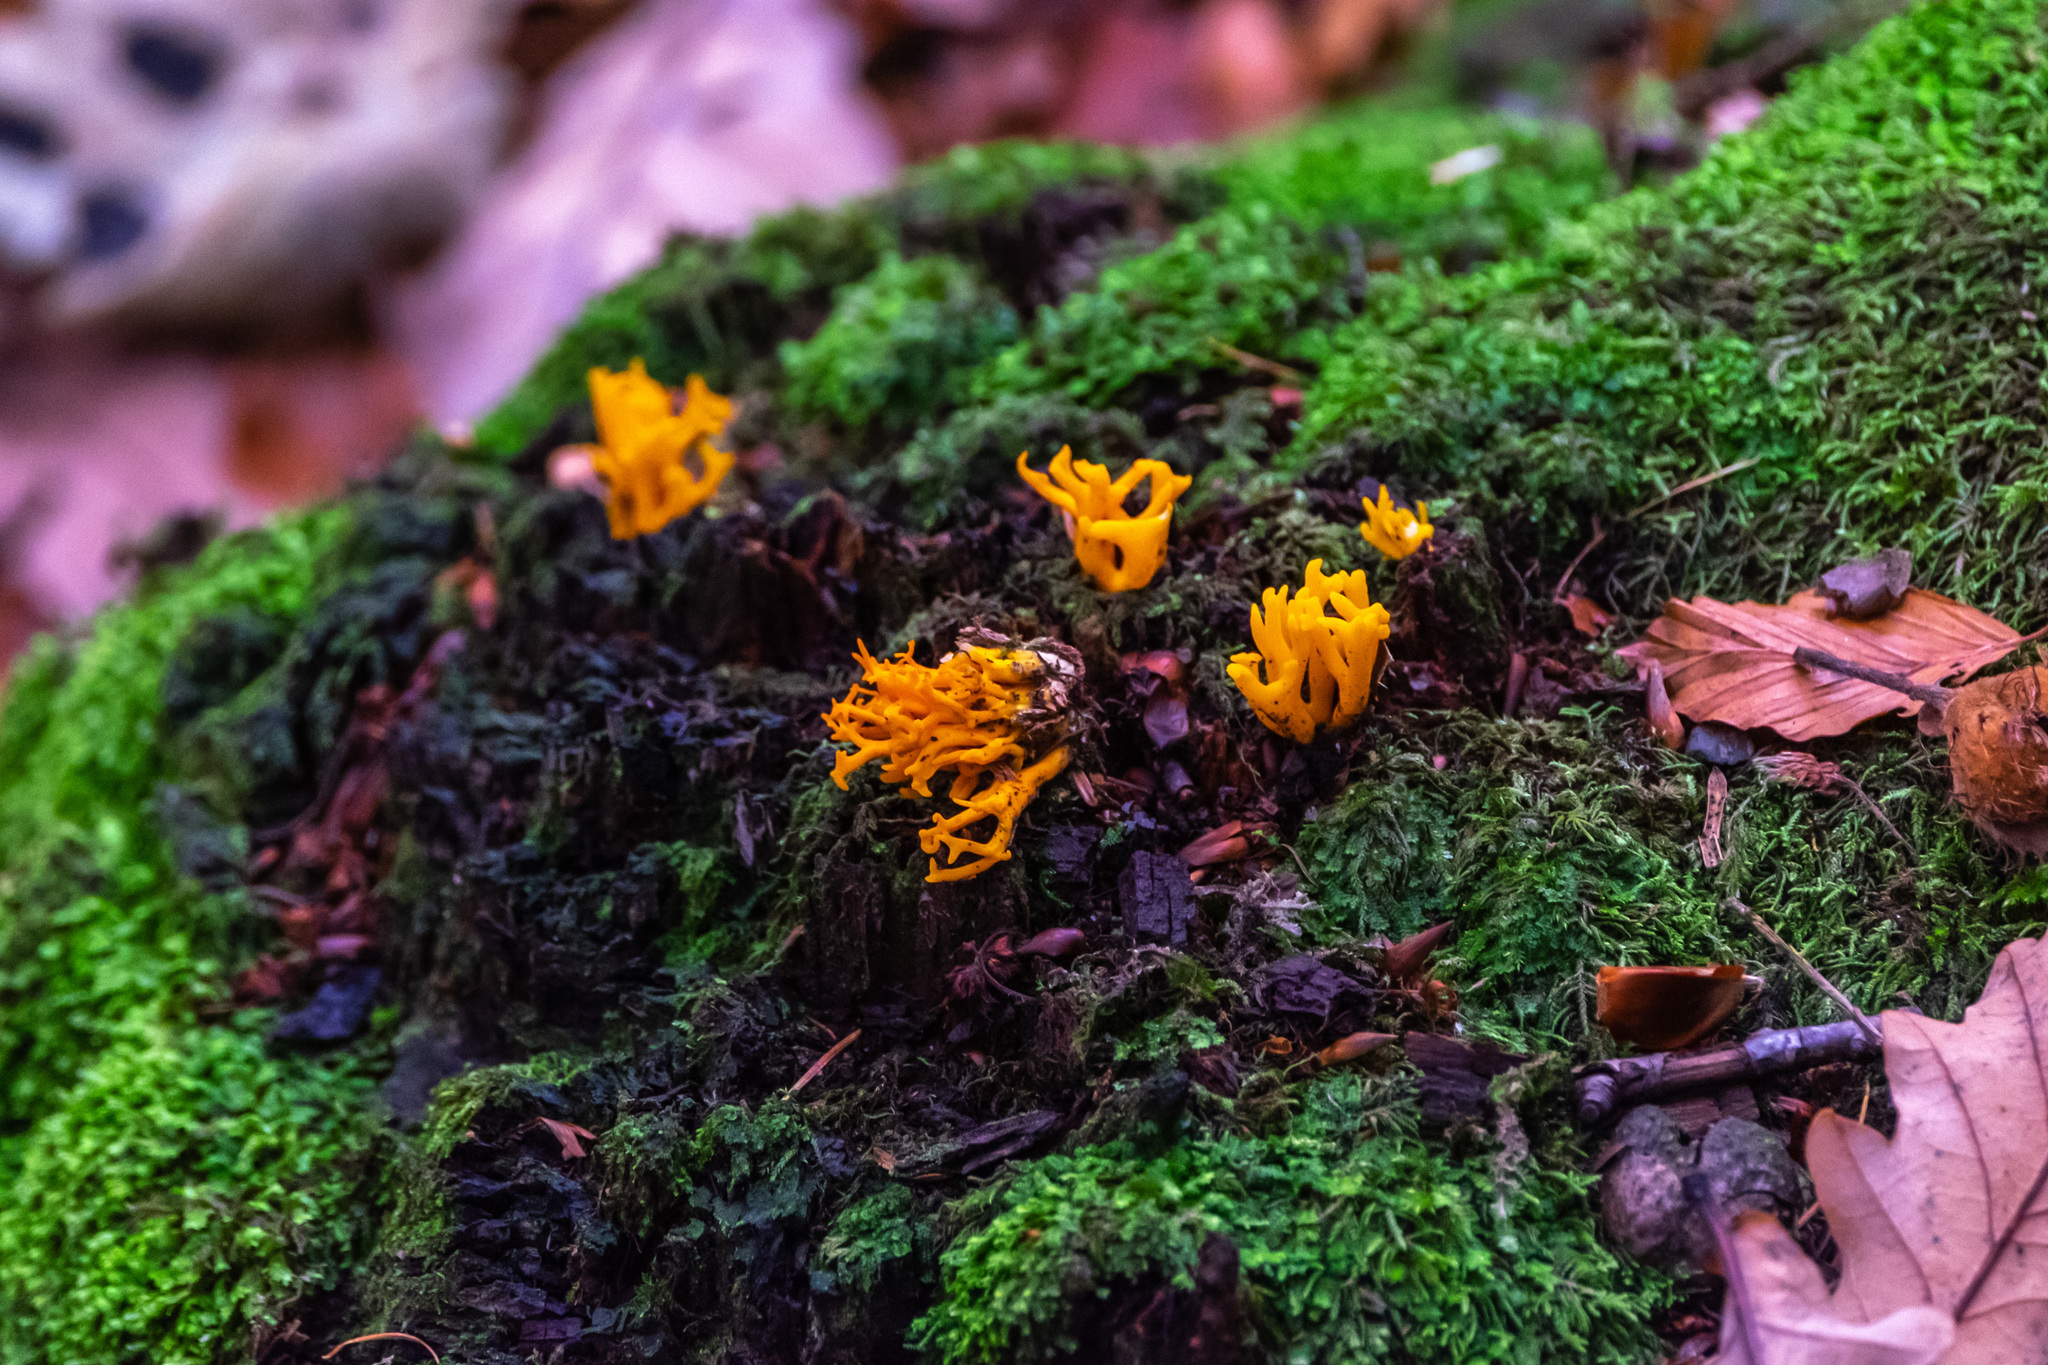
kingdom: Fungi
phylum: Basidiomycota
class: Dacrymycetes
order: Dacrymycetales
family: Dacrymycetaceae
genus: Calocera
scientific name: Calocera viscosa
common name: Yellow stagshorn
